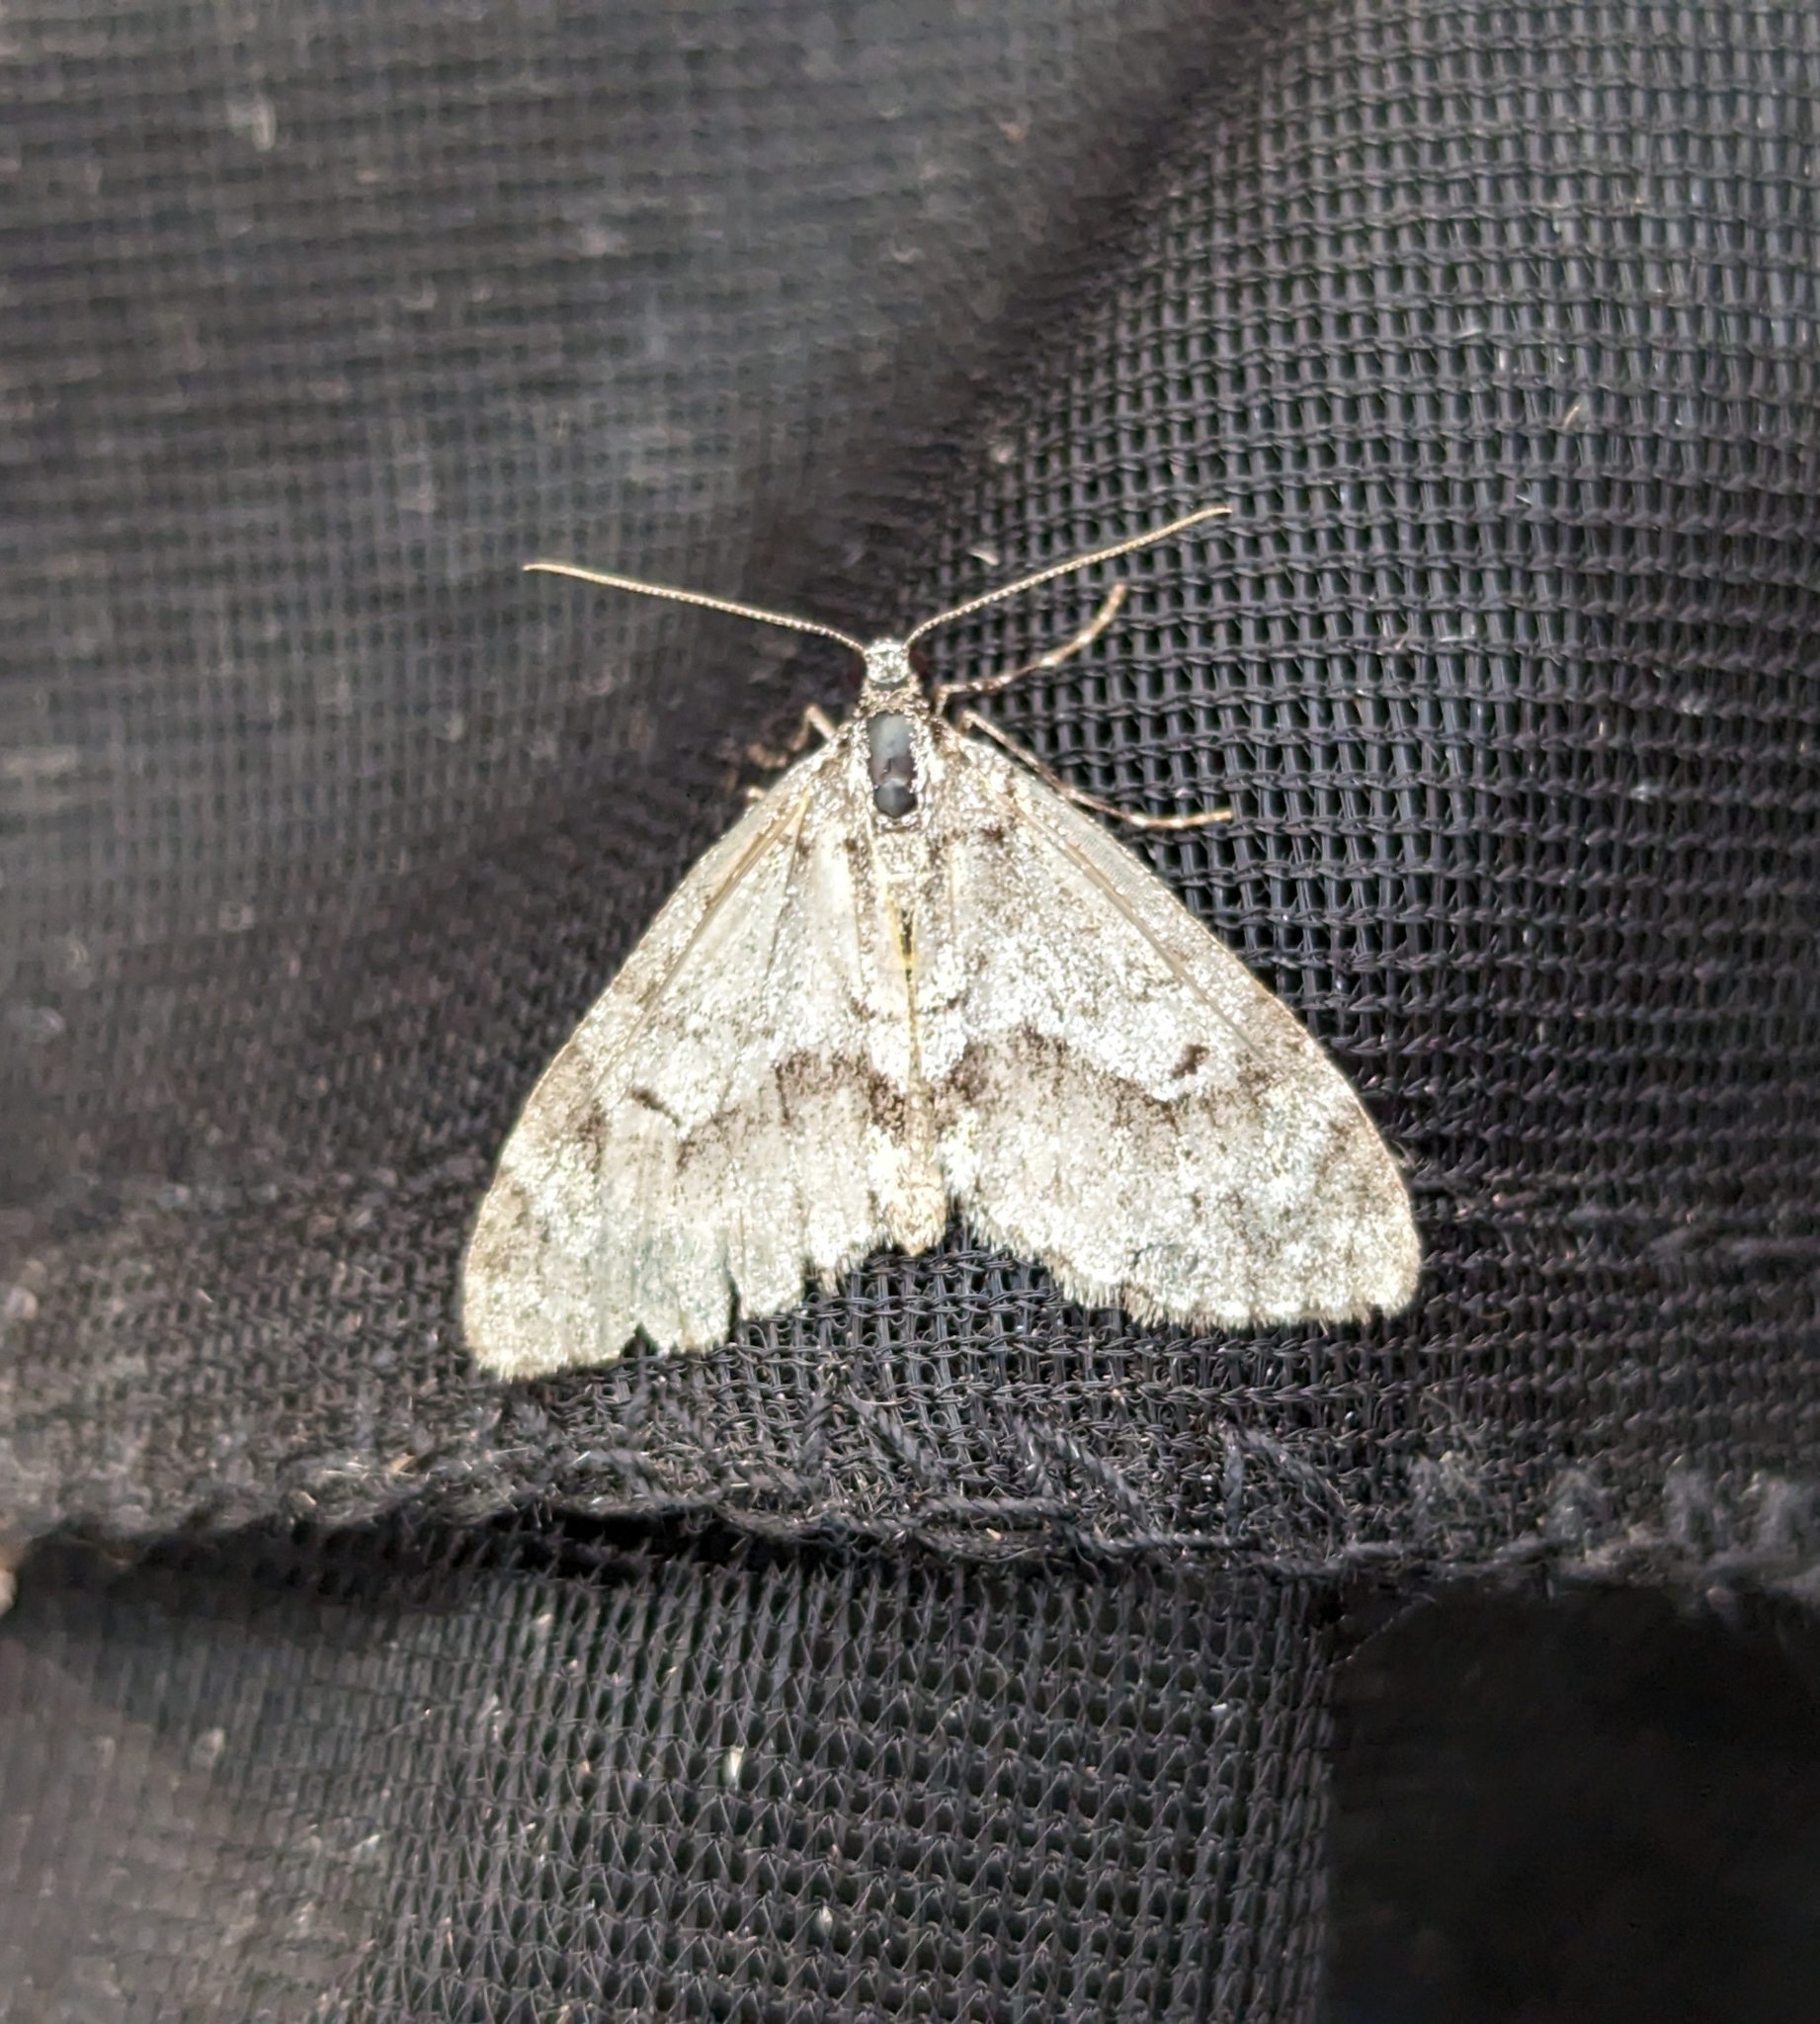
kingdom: Animalia
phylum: Arthropoda
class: Insecta
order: Lepidoptera
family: Geometridae
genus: Cladara
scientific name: Cladara limitaria
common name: Mottled gray carpet
